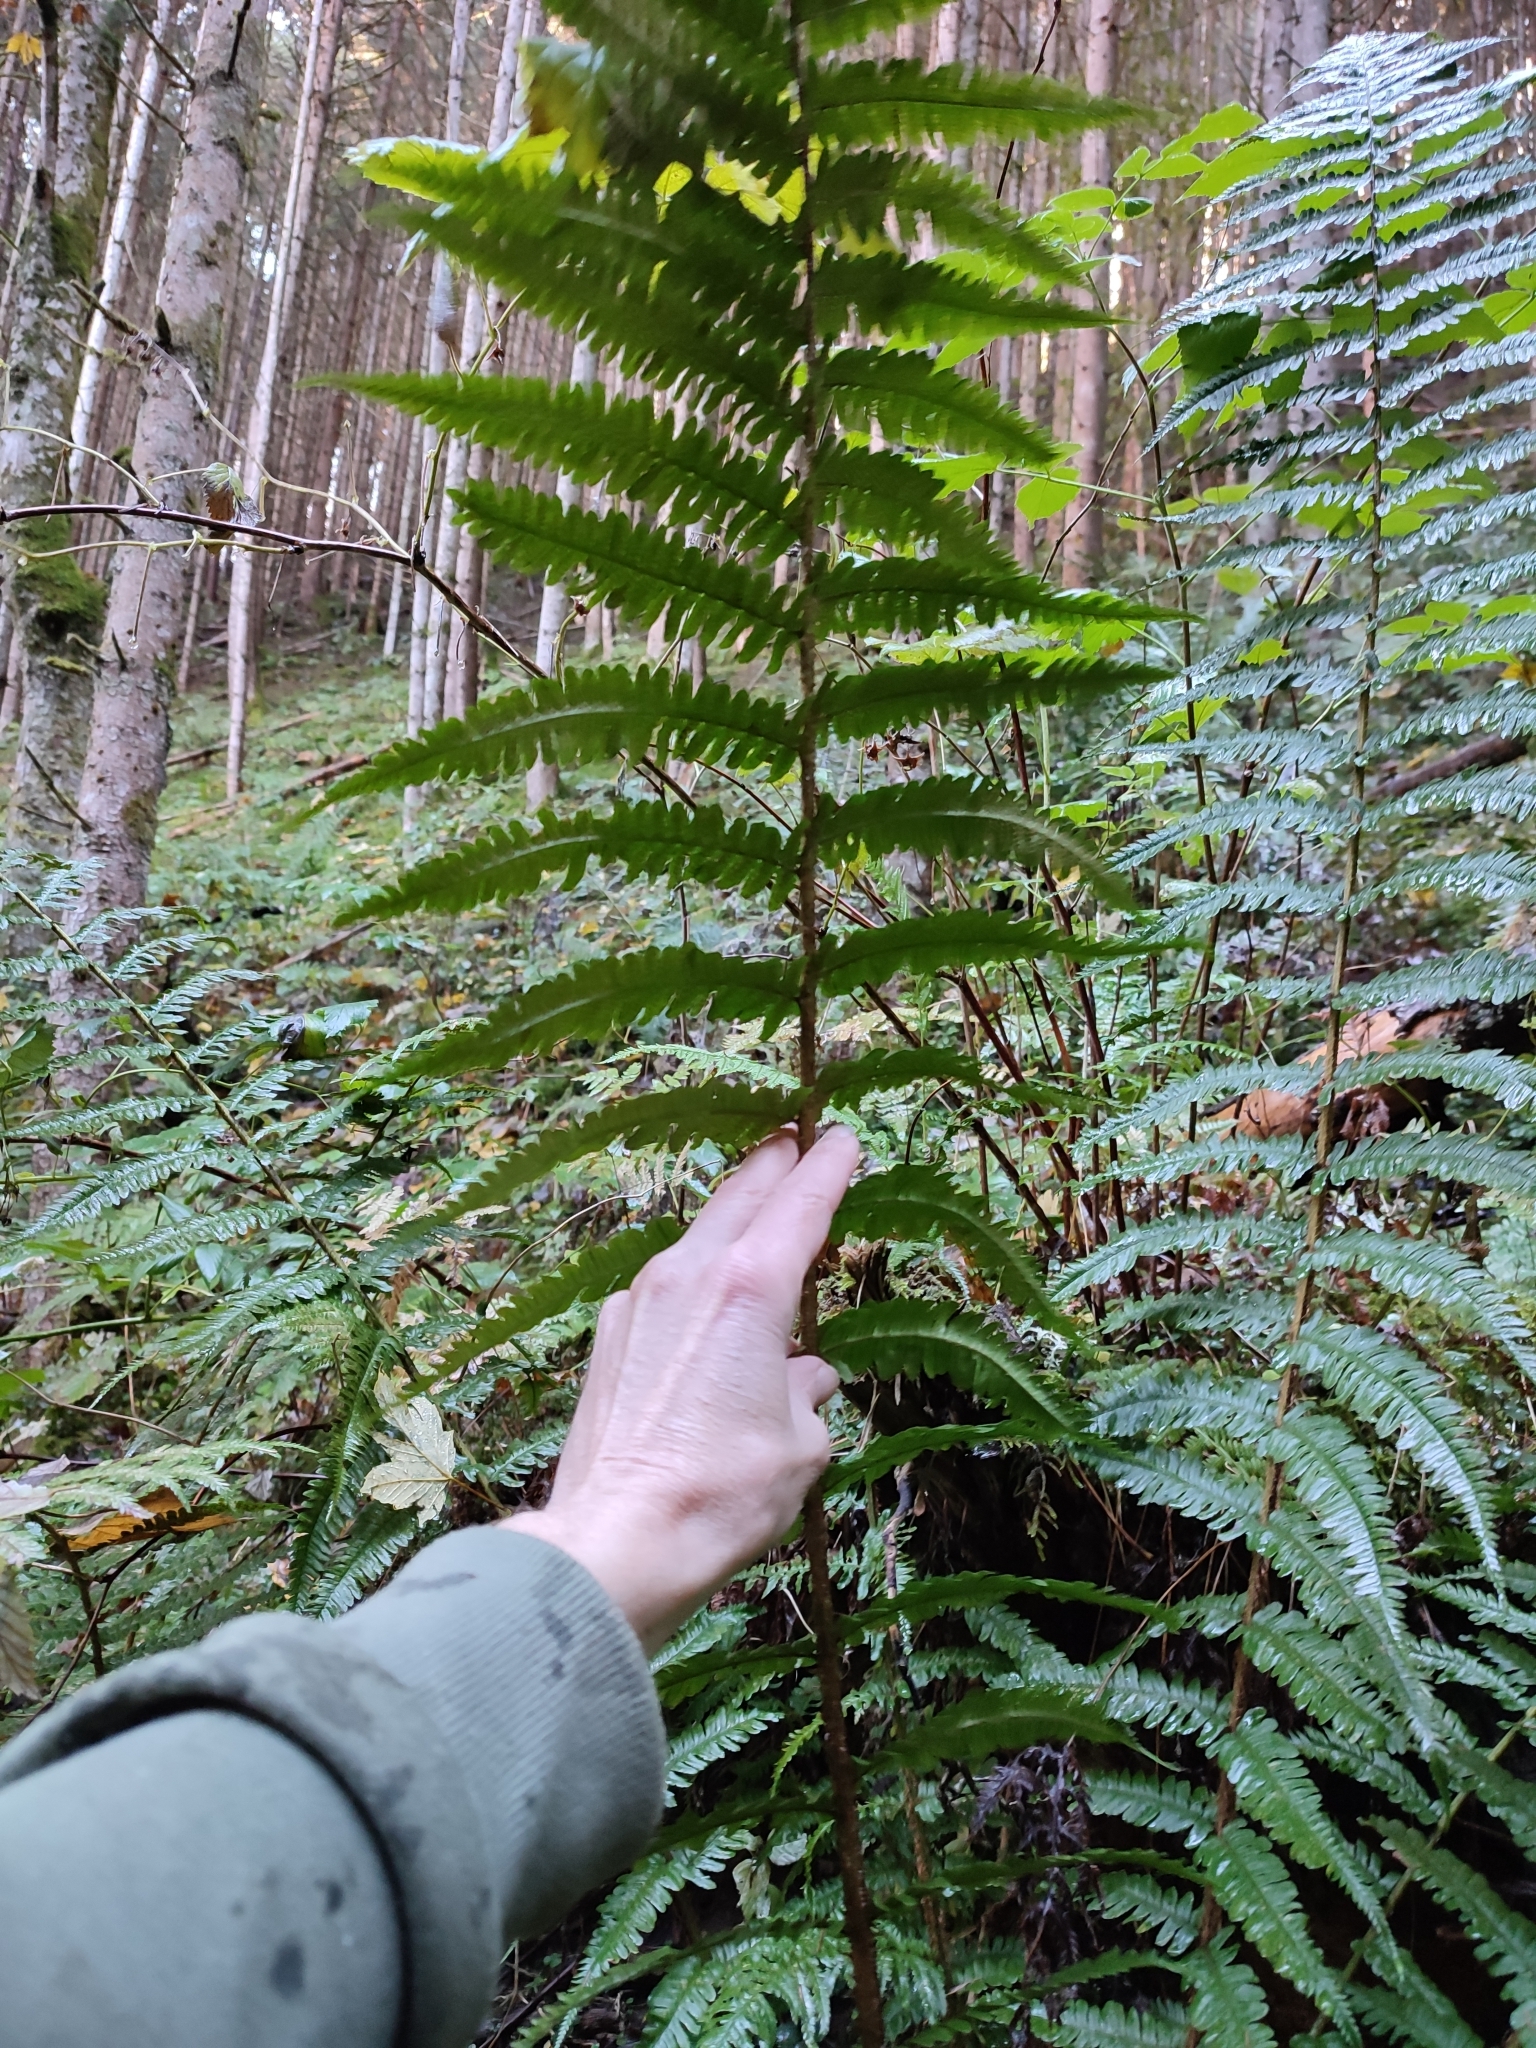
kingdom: Plantae
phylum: Tracheophyta
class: Polypodiopsida
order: Polypodiales
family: Dryopteridaceae
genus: Dryopteris
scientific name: Dryopteris borreri
